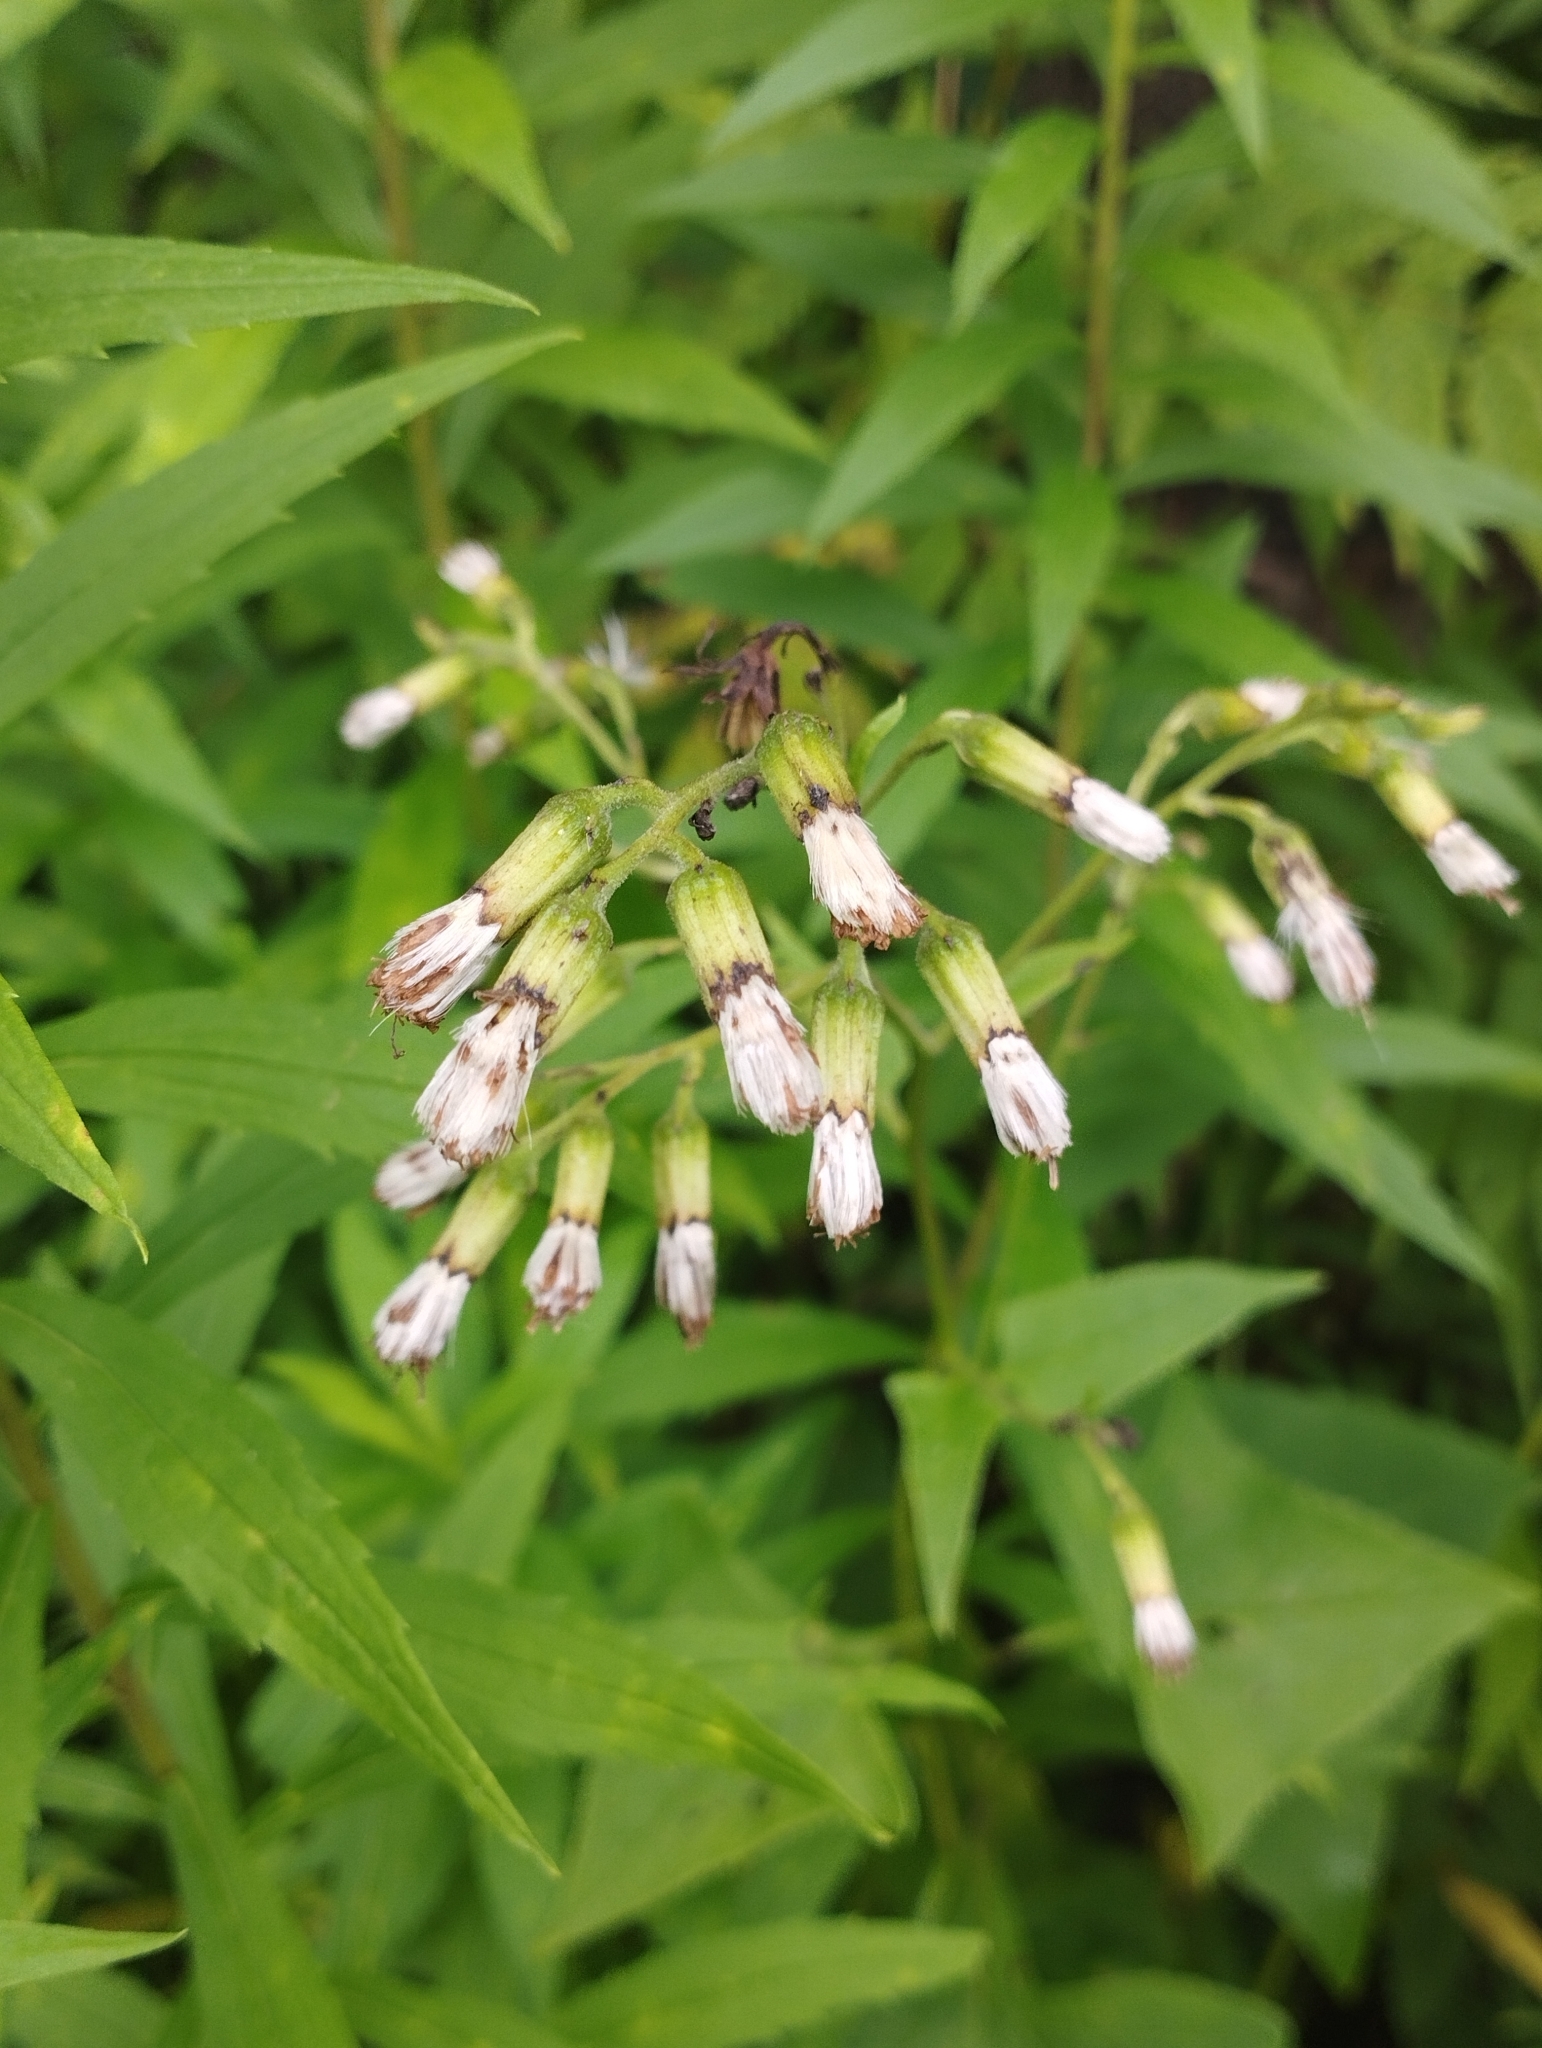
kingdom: Plantae
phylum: Tracheophyta
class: Magnoliopsida
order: Asterales
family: Asteraceae
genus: Parasenecio
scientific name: Parasenecio hastatus
